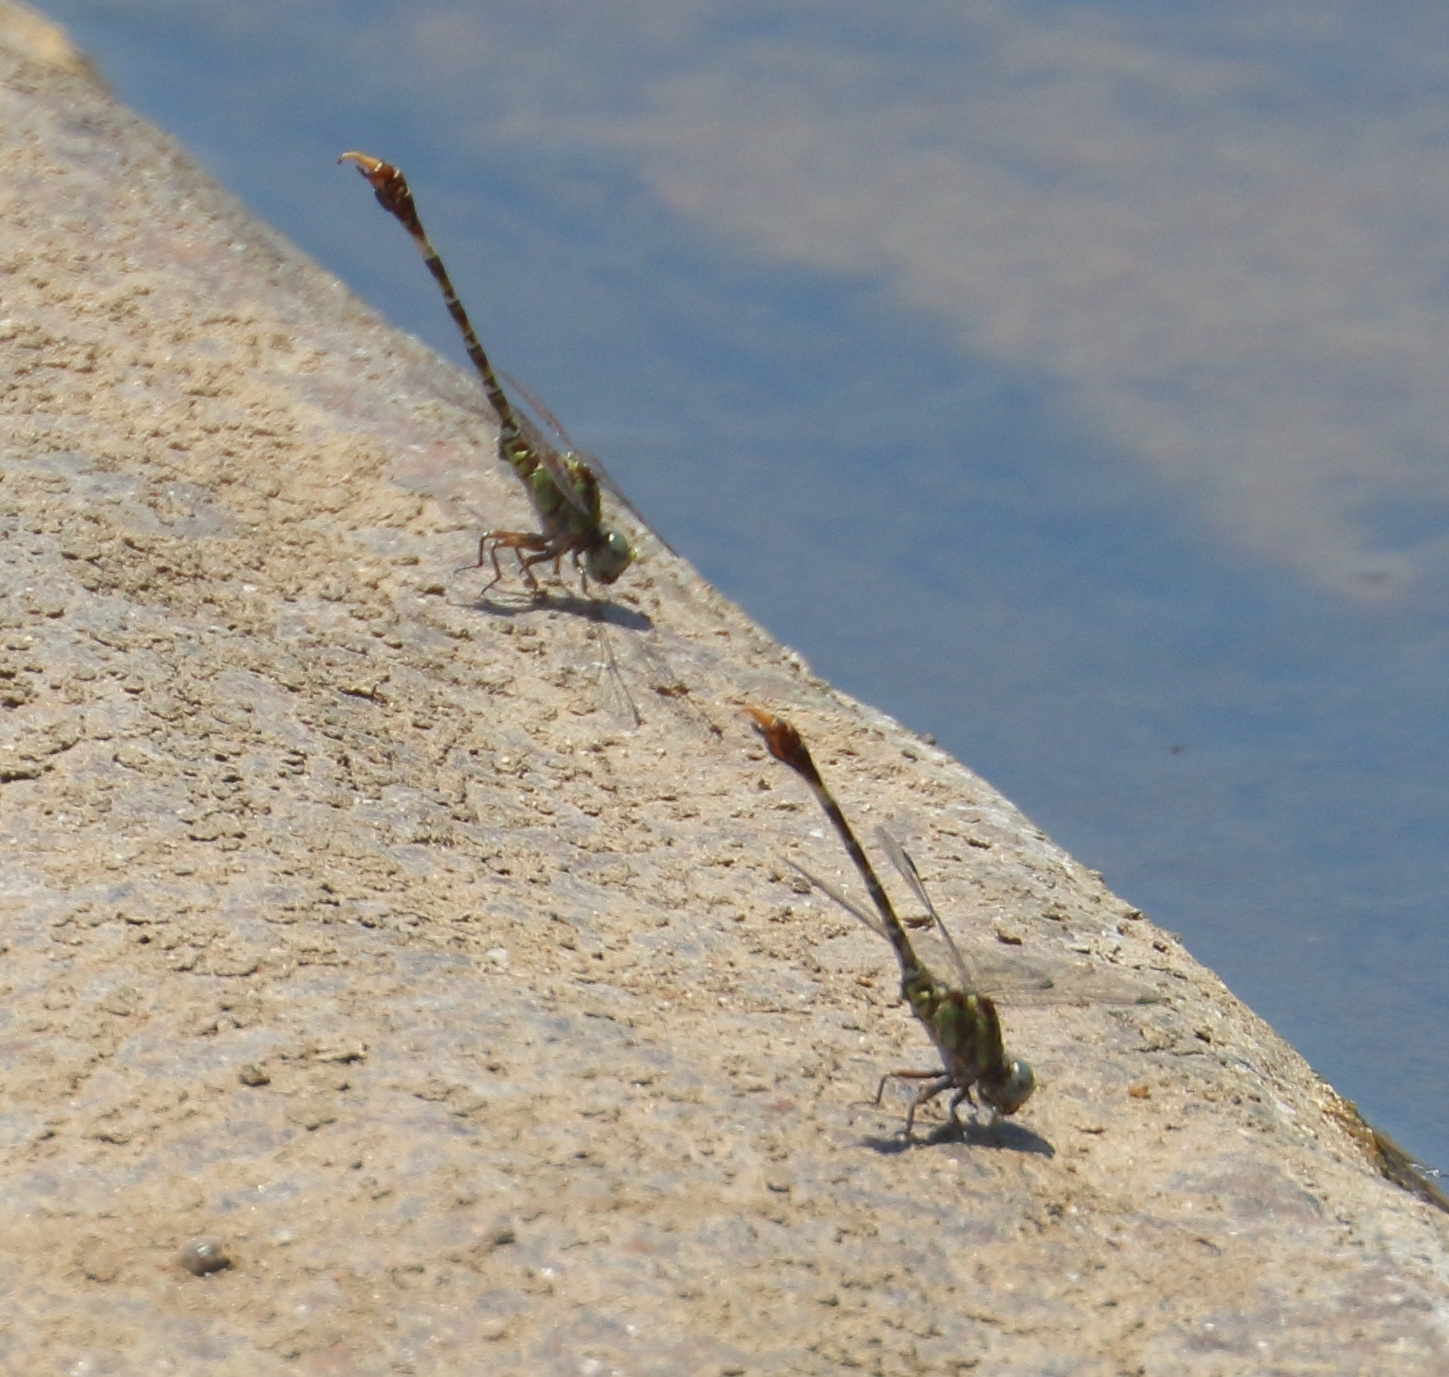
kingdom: Animalia
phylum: Arthropoda
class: Insecta
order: Odonata
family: Gomphidae
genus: Paragomphus
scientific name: Paragomphus genei
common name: Common hooktail
